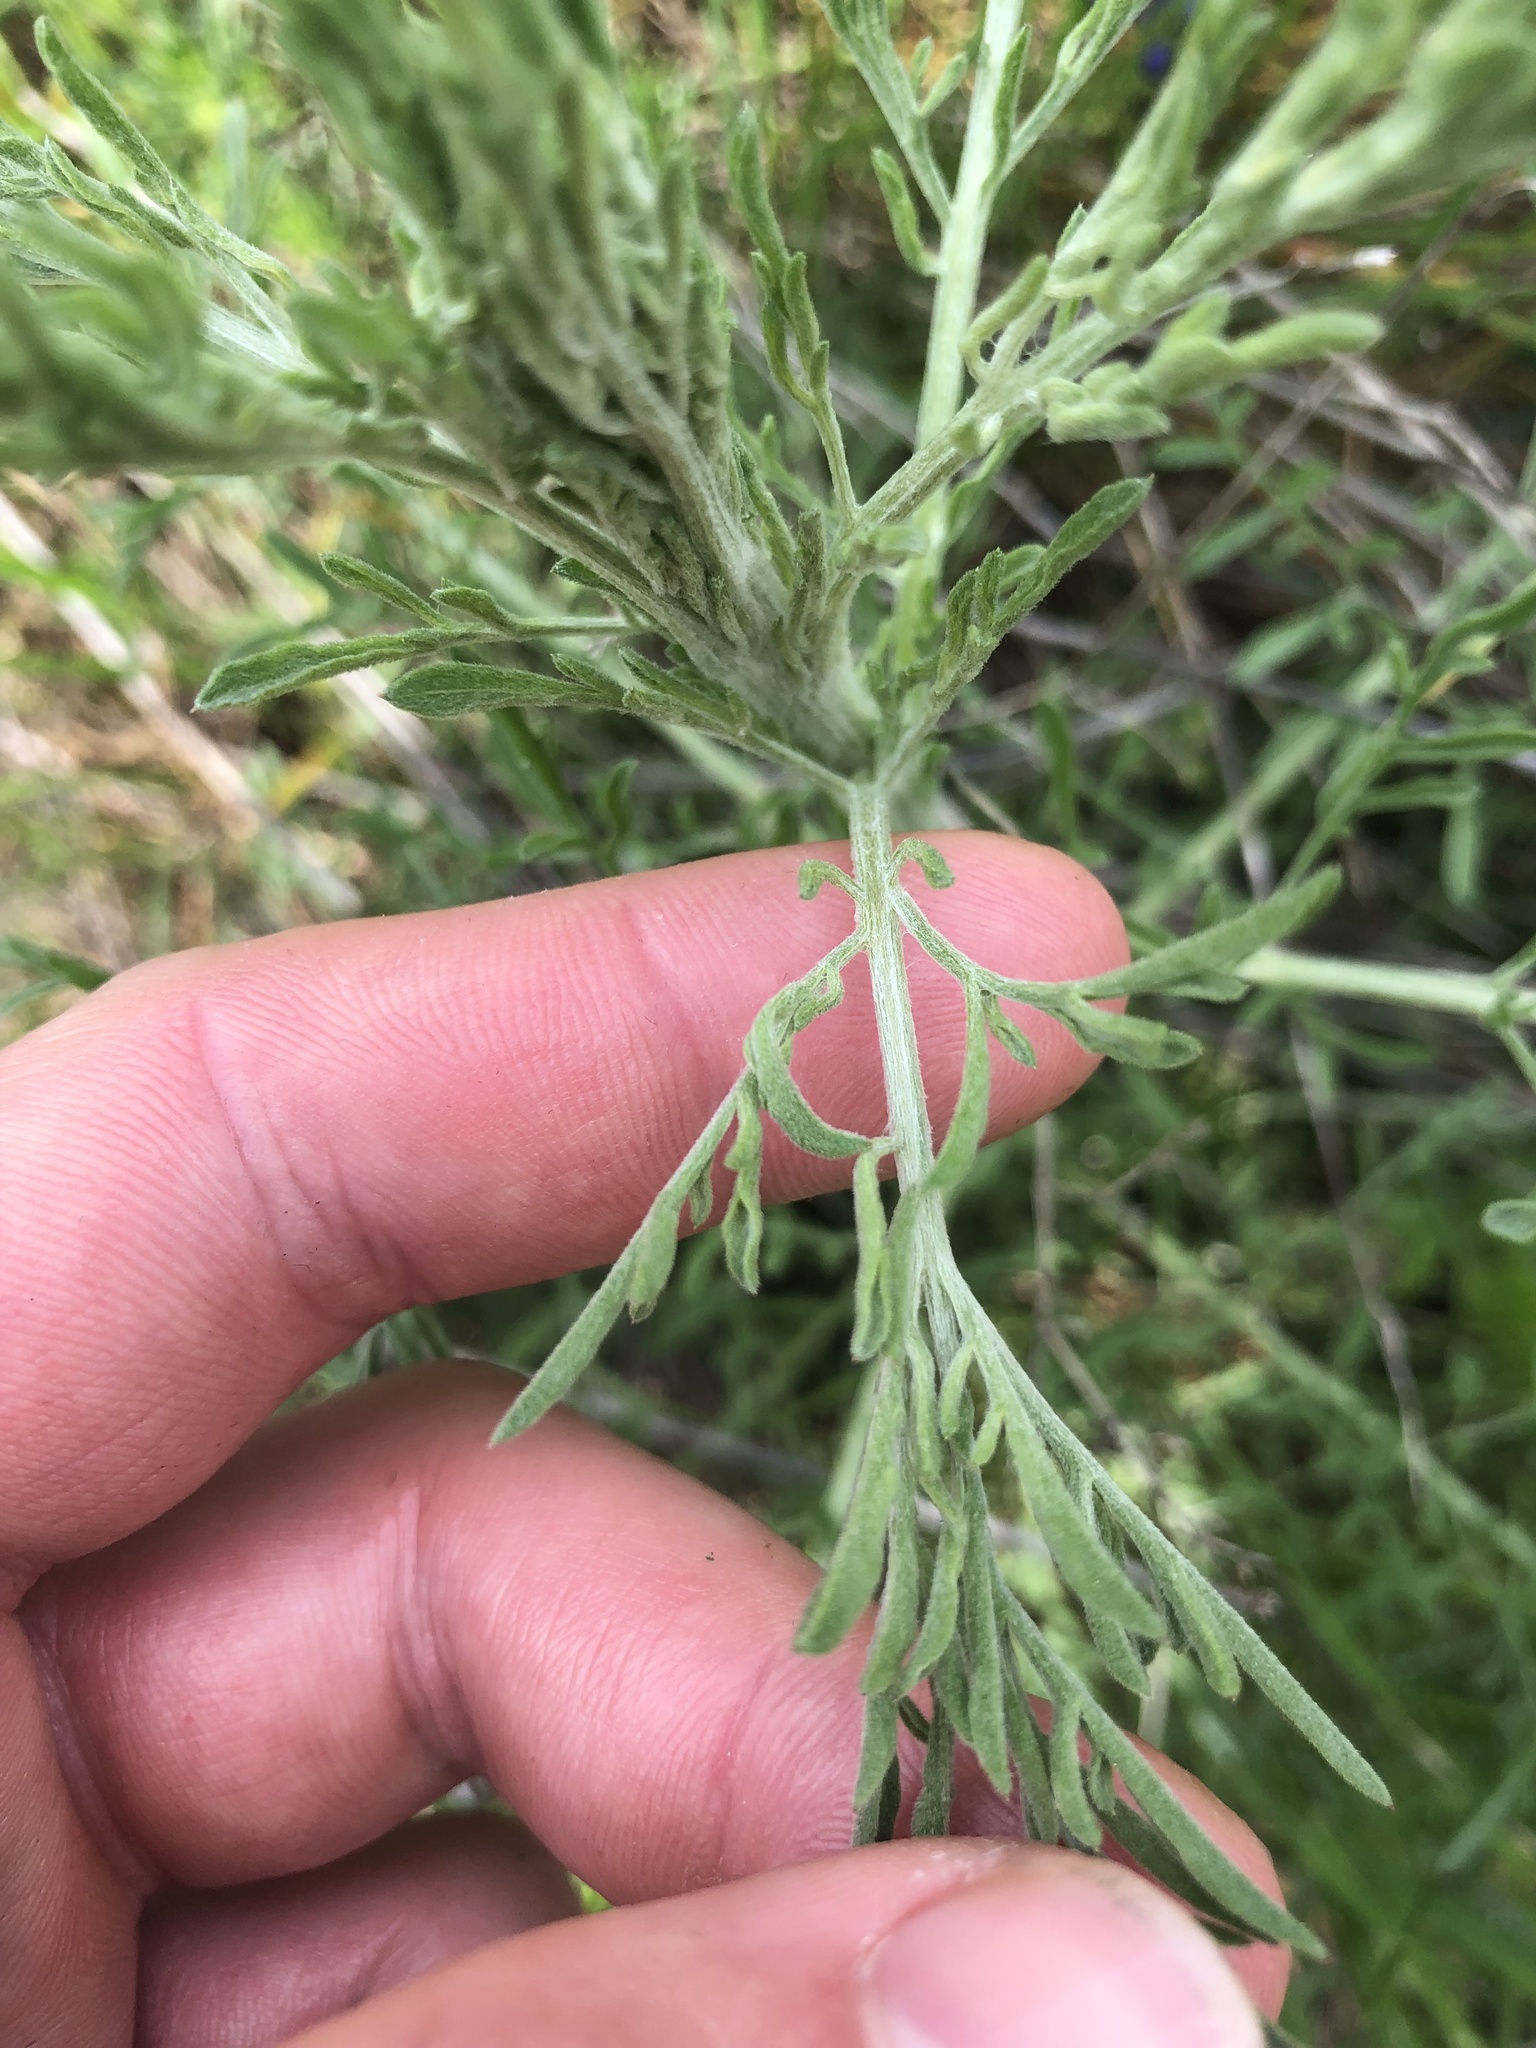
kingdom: Plantae
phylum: Tracheophyta
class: Magnoliopsida
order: Asterales
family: Asteraceae
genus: Centaurea
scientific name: Centaurea stoebe
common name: Spotted knapweed
